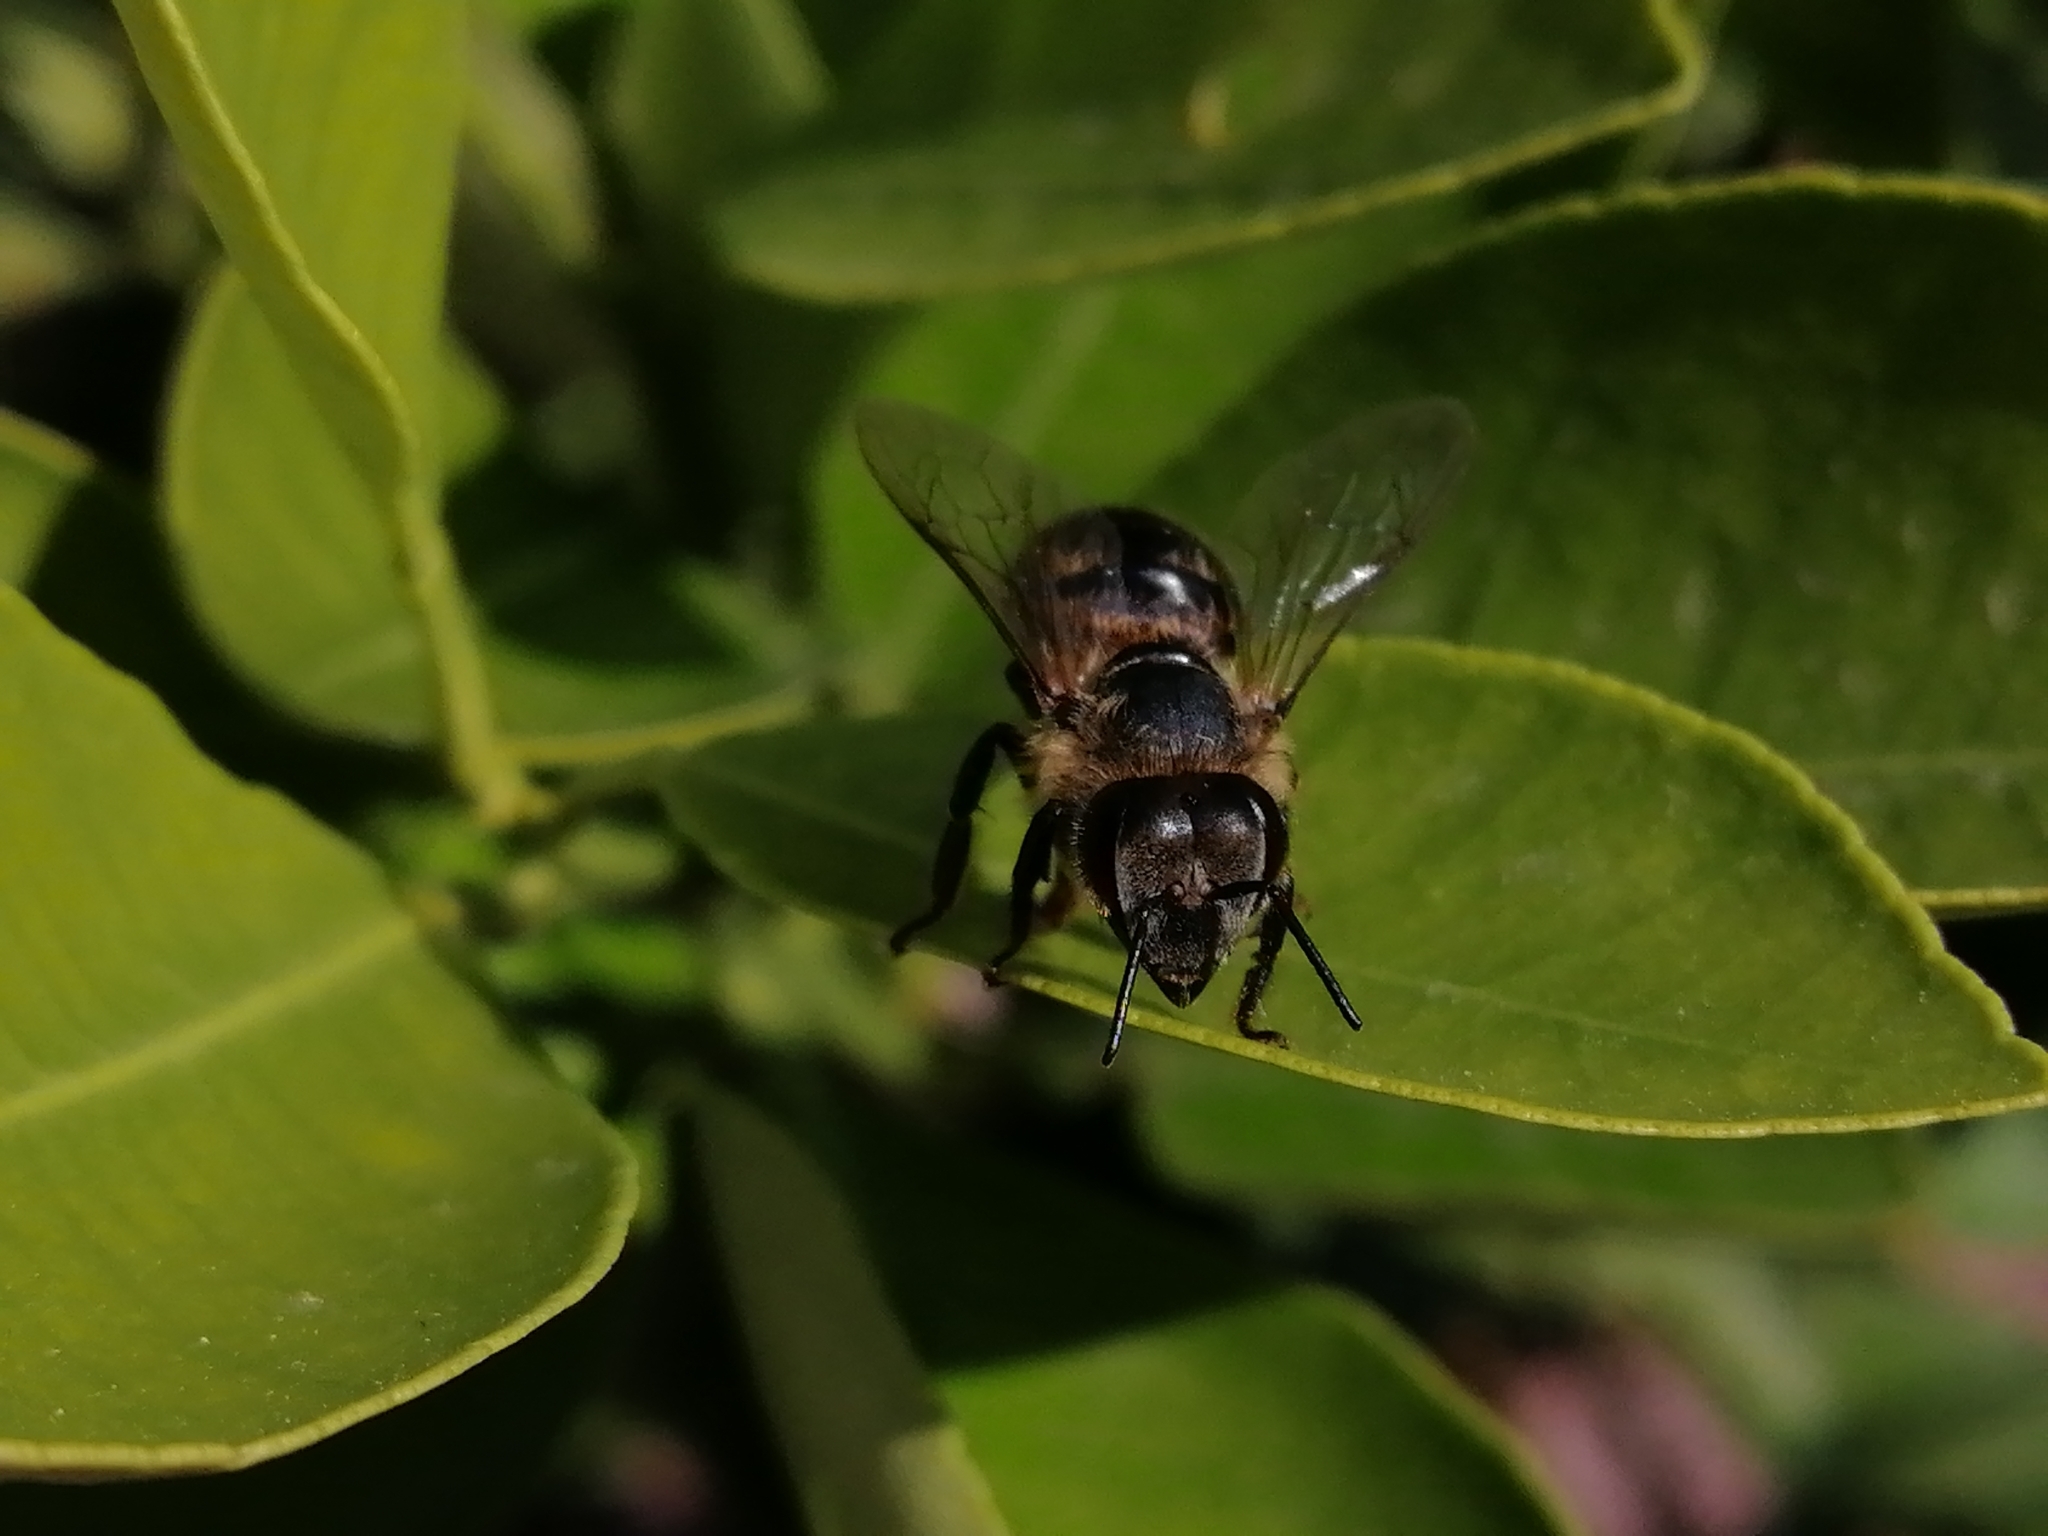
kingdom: Animalia
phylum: Arthropoda
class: Insecta
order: Hymenoptera
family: Apidae
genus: Apis
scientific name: Apis mellifera
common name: Honey bee
